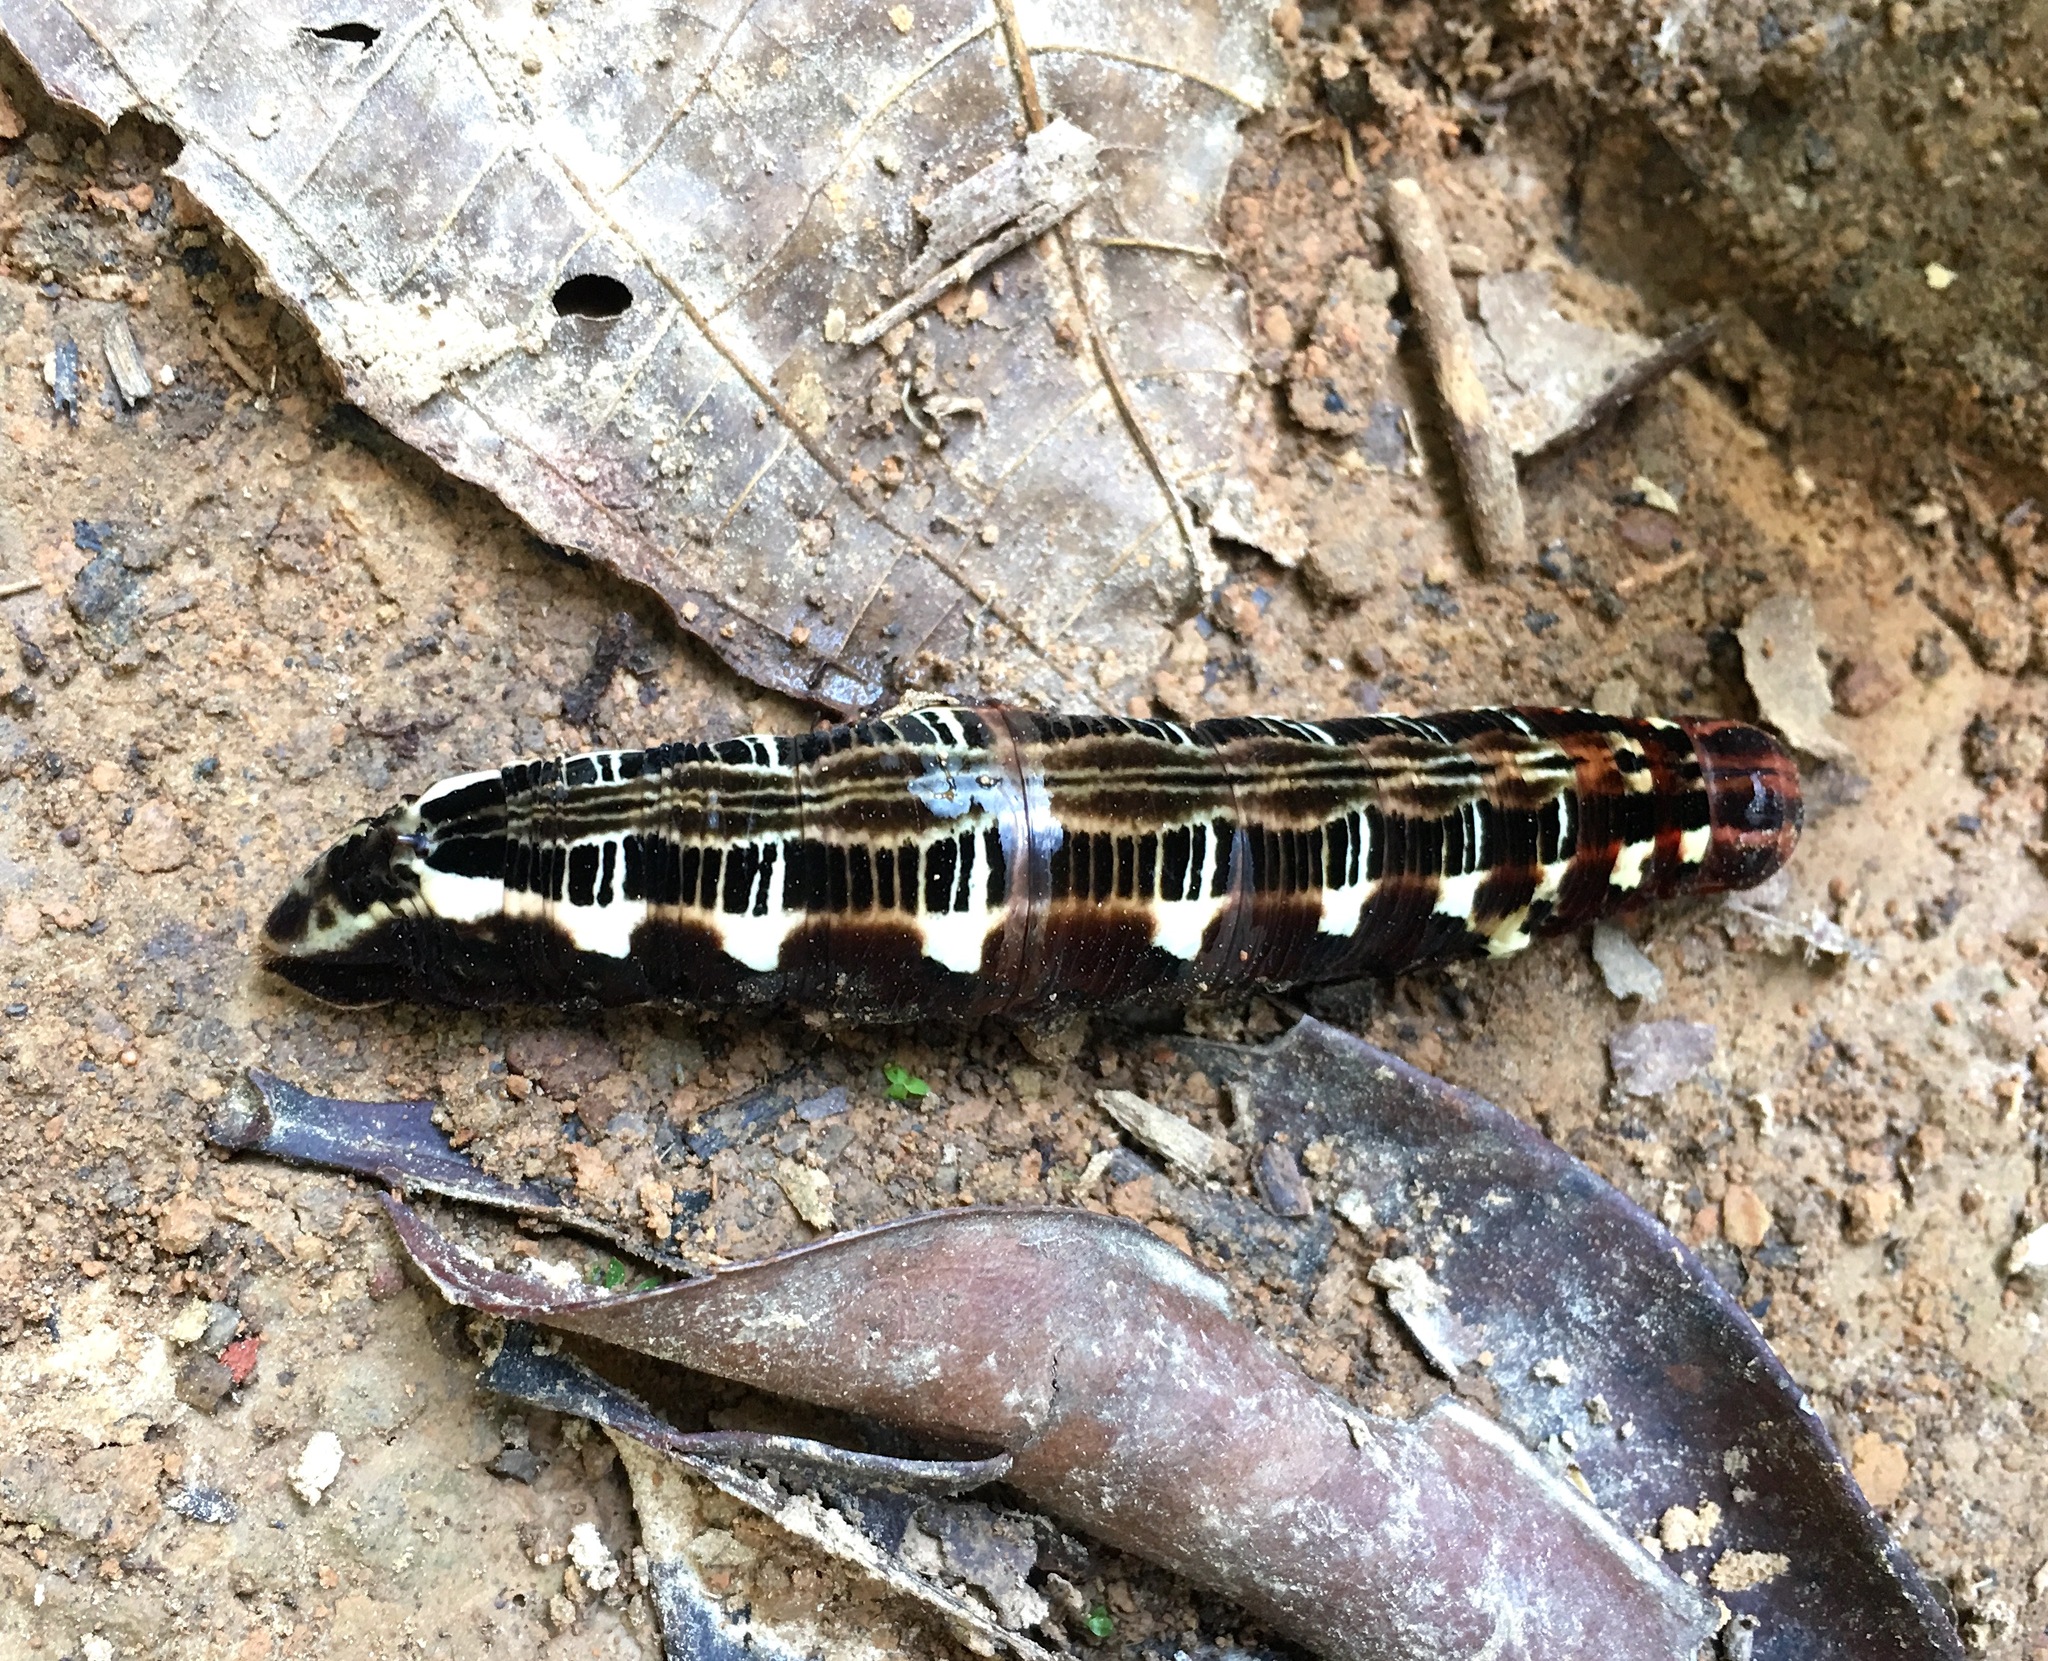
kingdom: Animalia
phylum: Arthropoda
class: Insecta
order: Lepidoptera
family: Sphingidae
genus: Oryba
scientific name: Oryba kadeni
